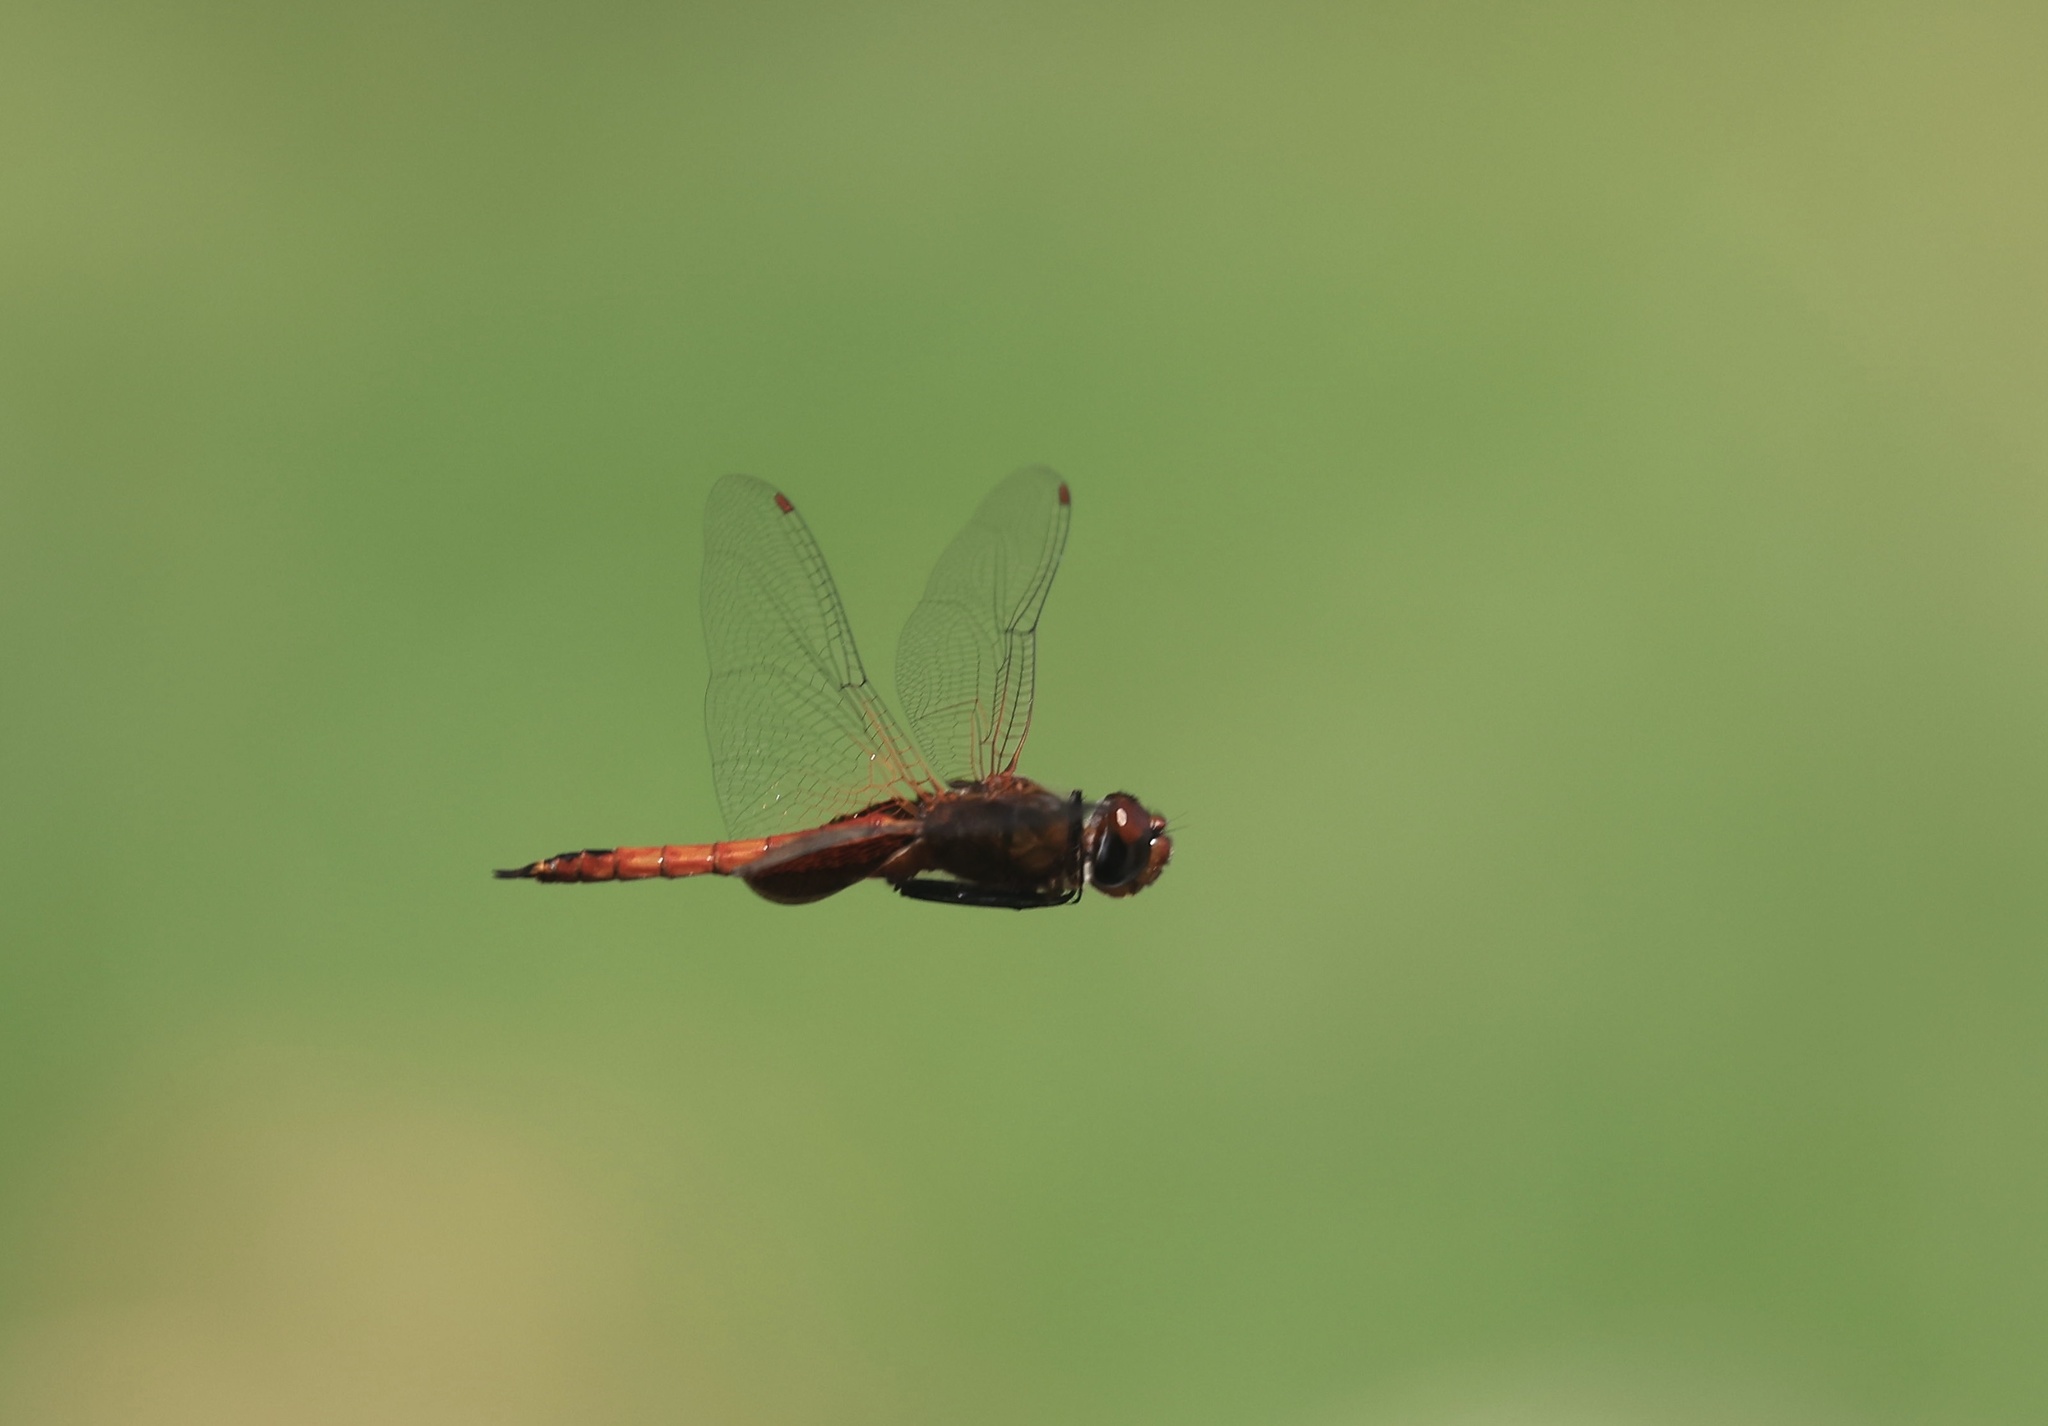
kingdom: Animalia
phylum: Arthropoda
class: Insecta
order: Odonata
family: Libellulidae
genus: Tramea
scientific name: Tramea abdominalis
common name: Vermilion saddlebags
